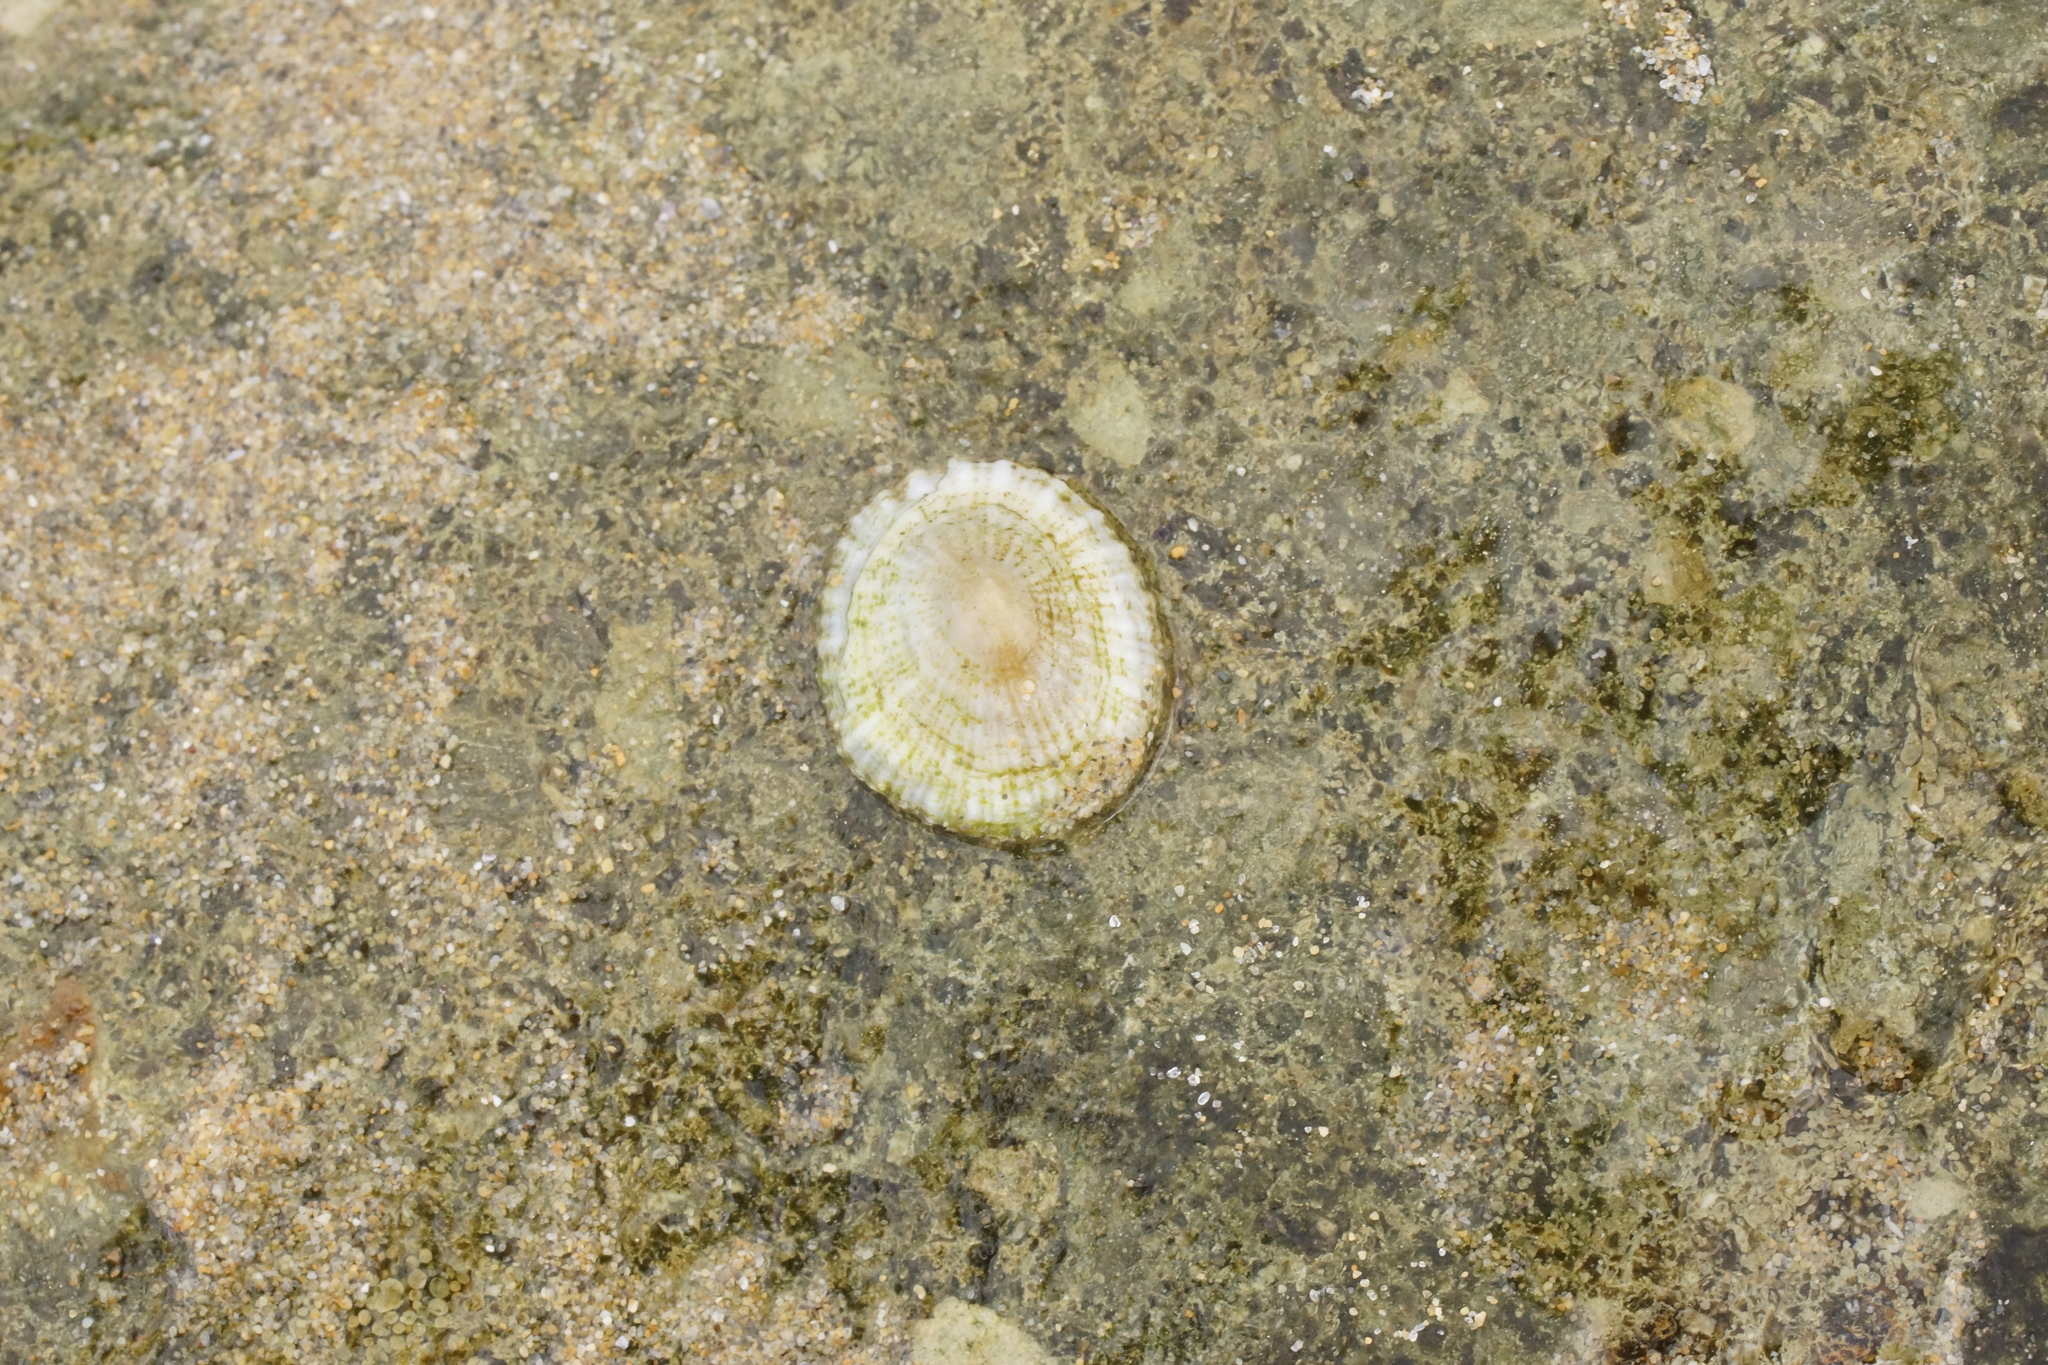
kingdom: Animalia
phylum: Mollusca
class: Gastropoda
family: Nacellidae
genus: Cellana
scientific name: Cellana tramoserica
